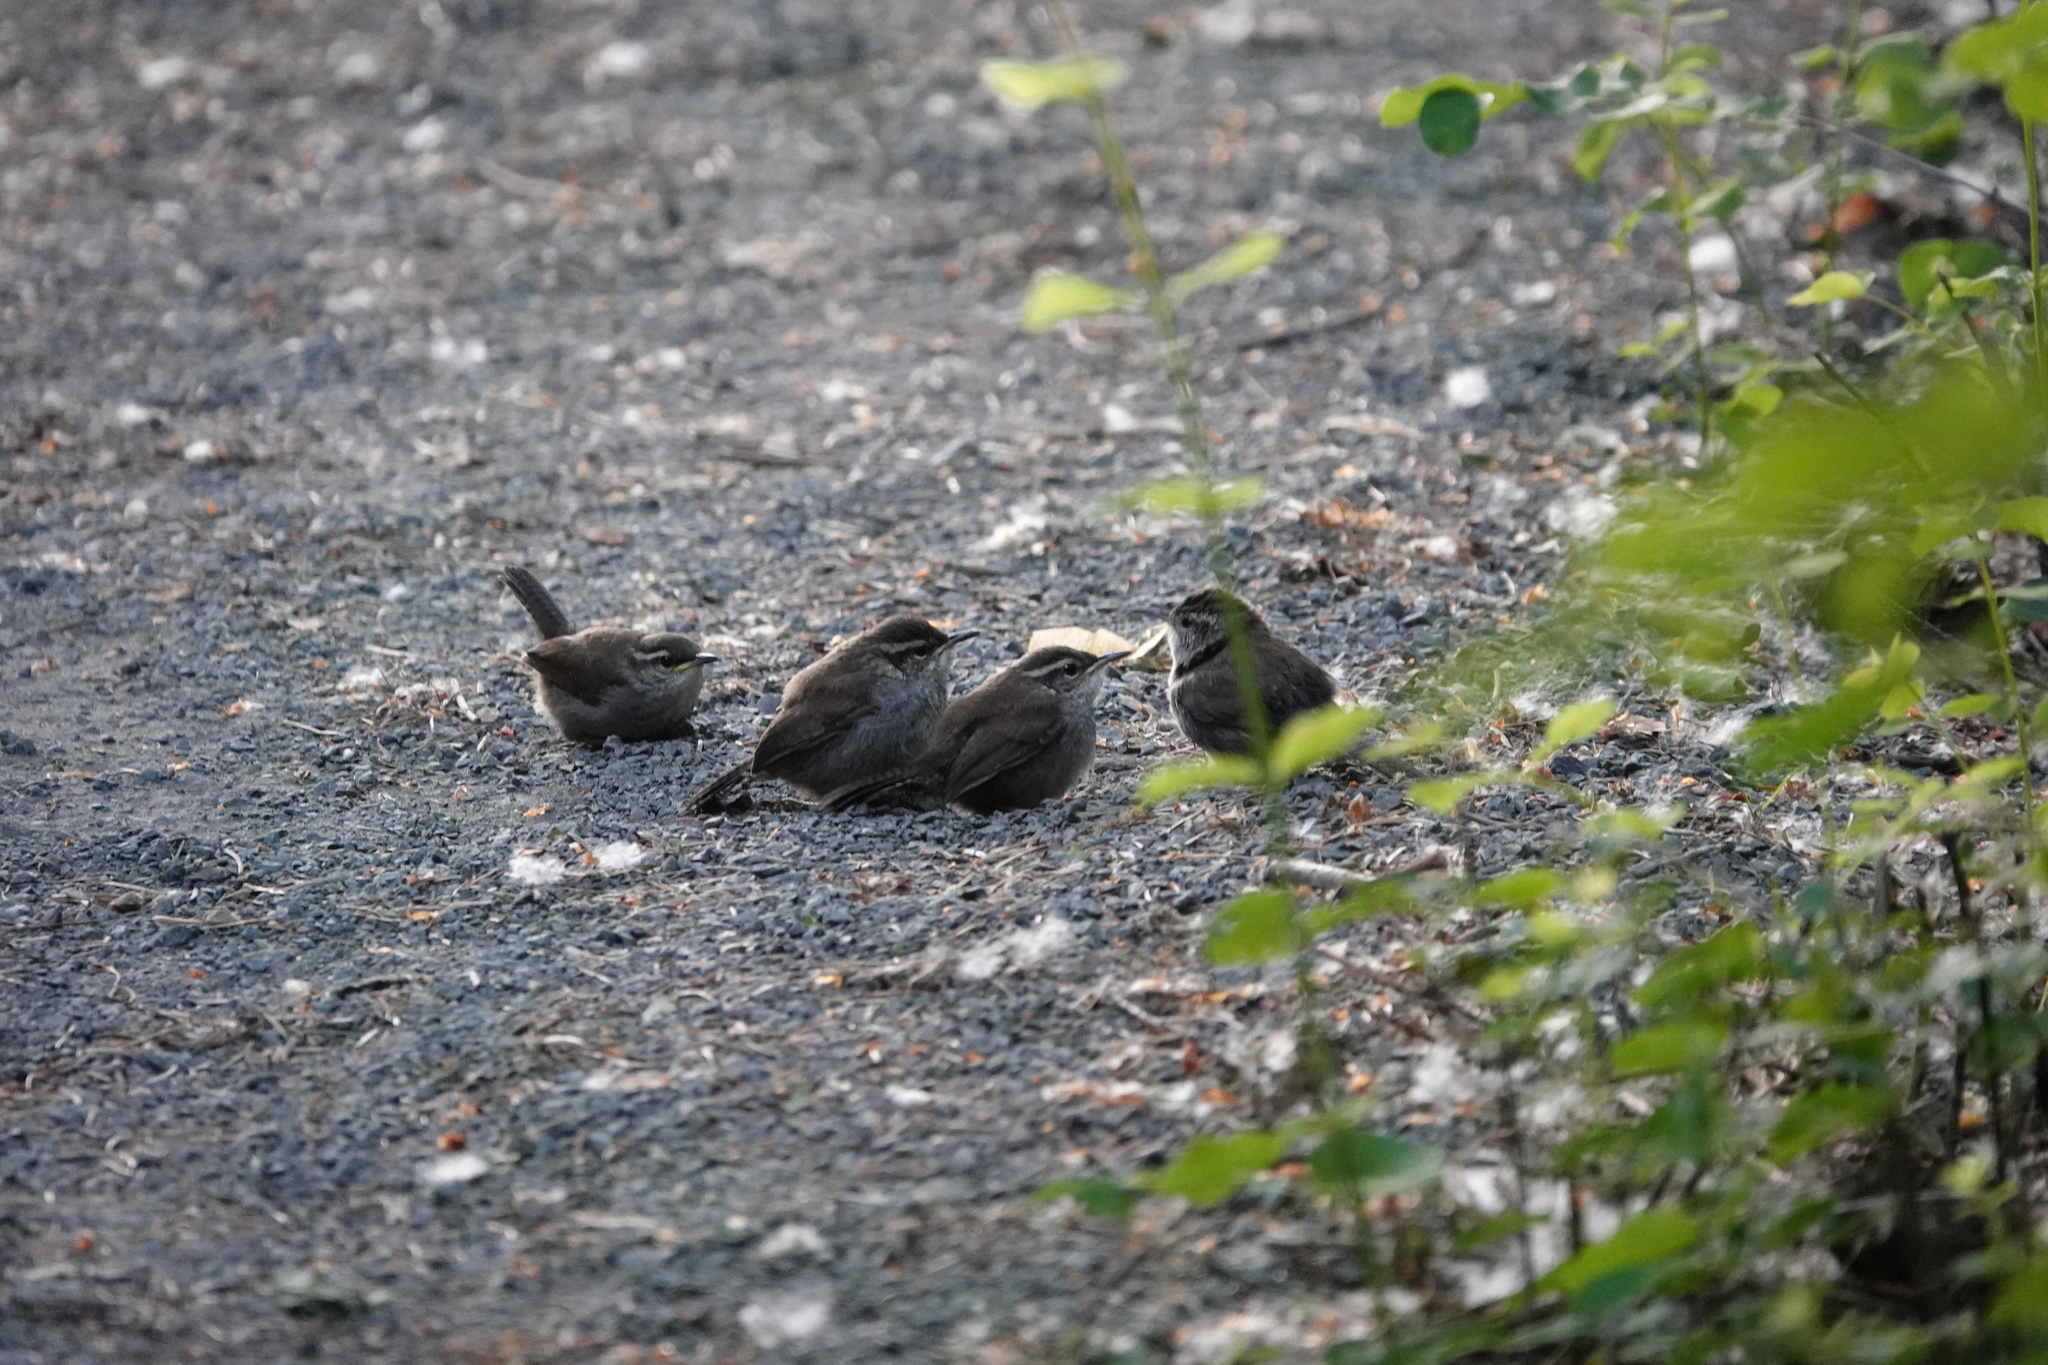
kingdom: Animalia
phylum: Chordata
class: Aves
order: Passeriformes
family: Troglodytidae
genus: Thryomanes
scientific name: Thryomanes bewickii
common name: Bewick's wren
